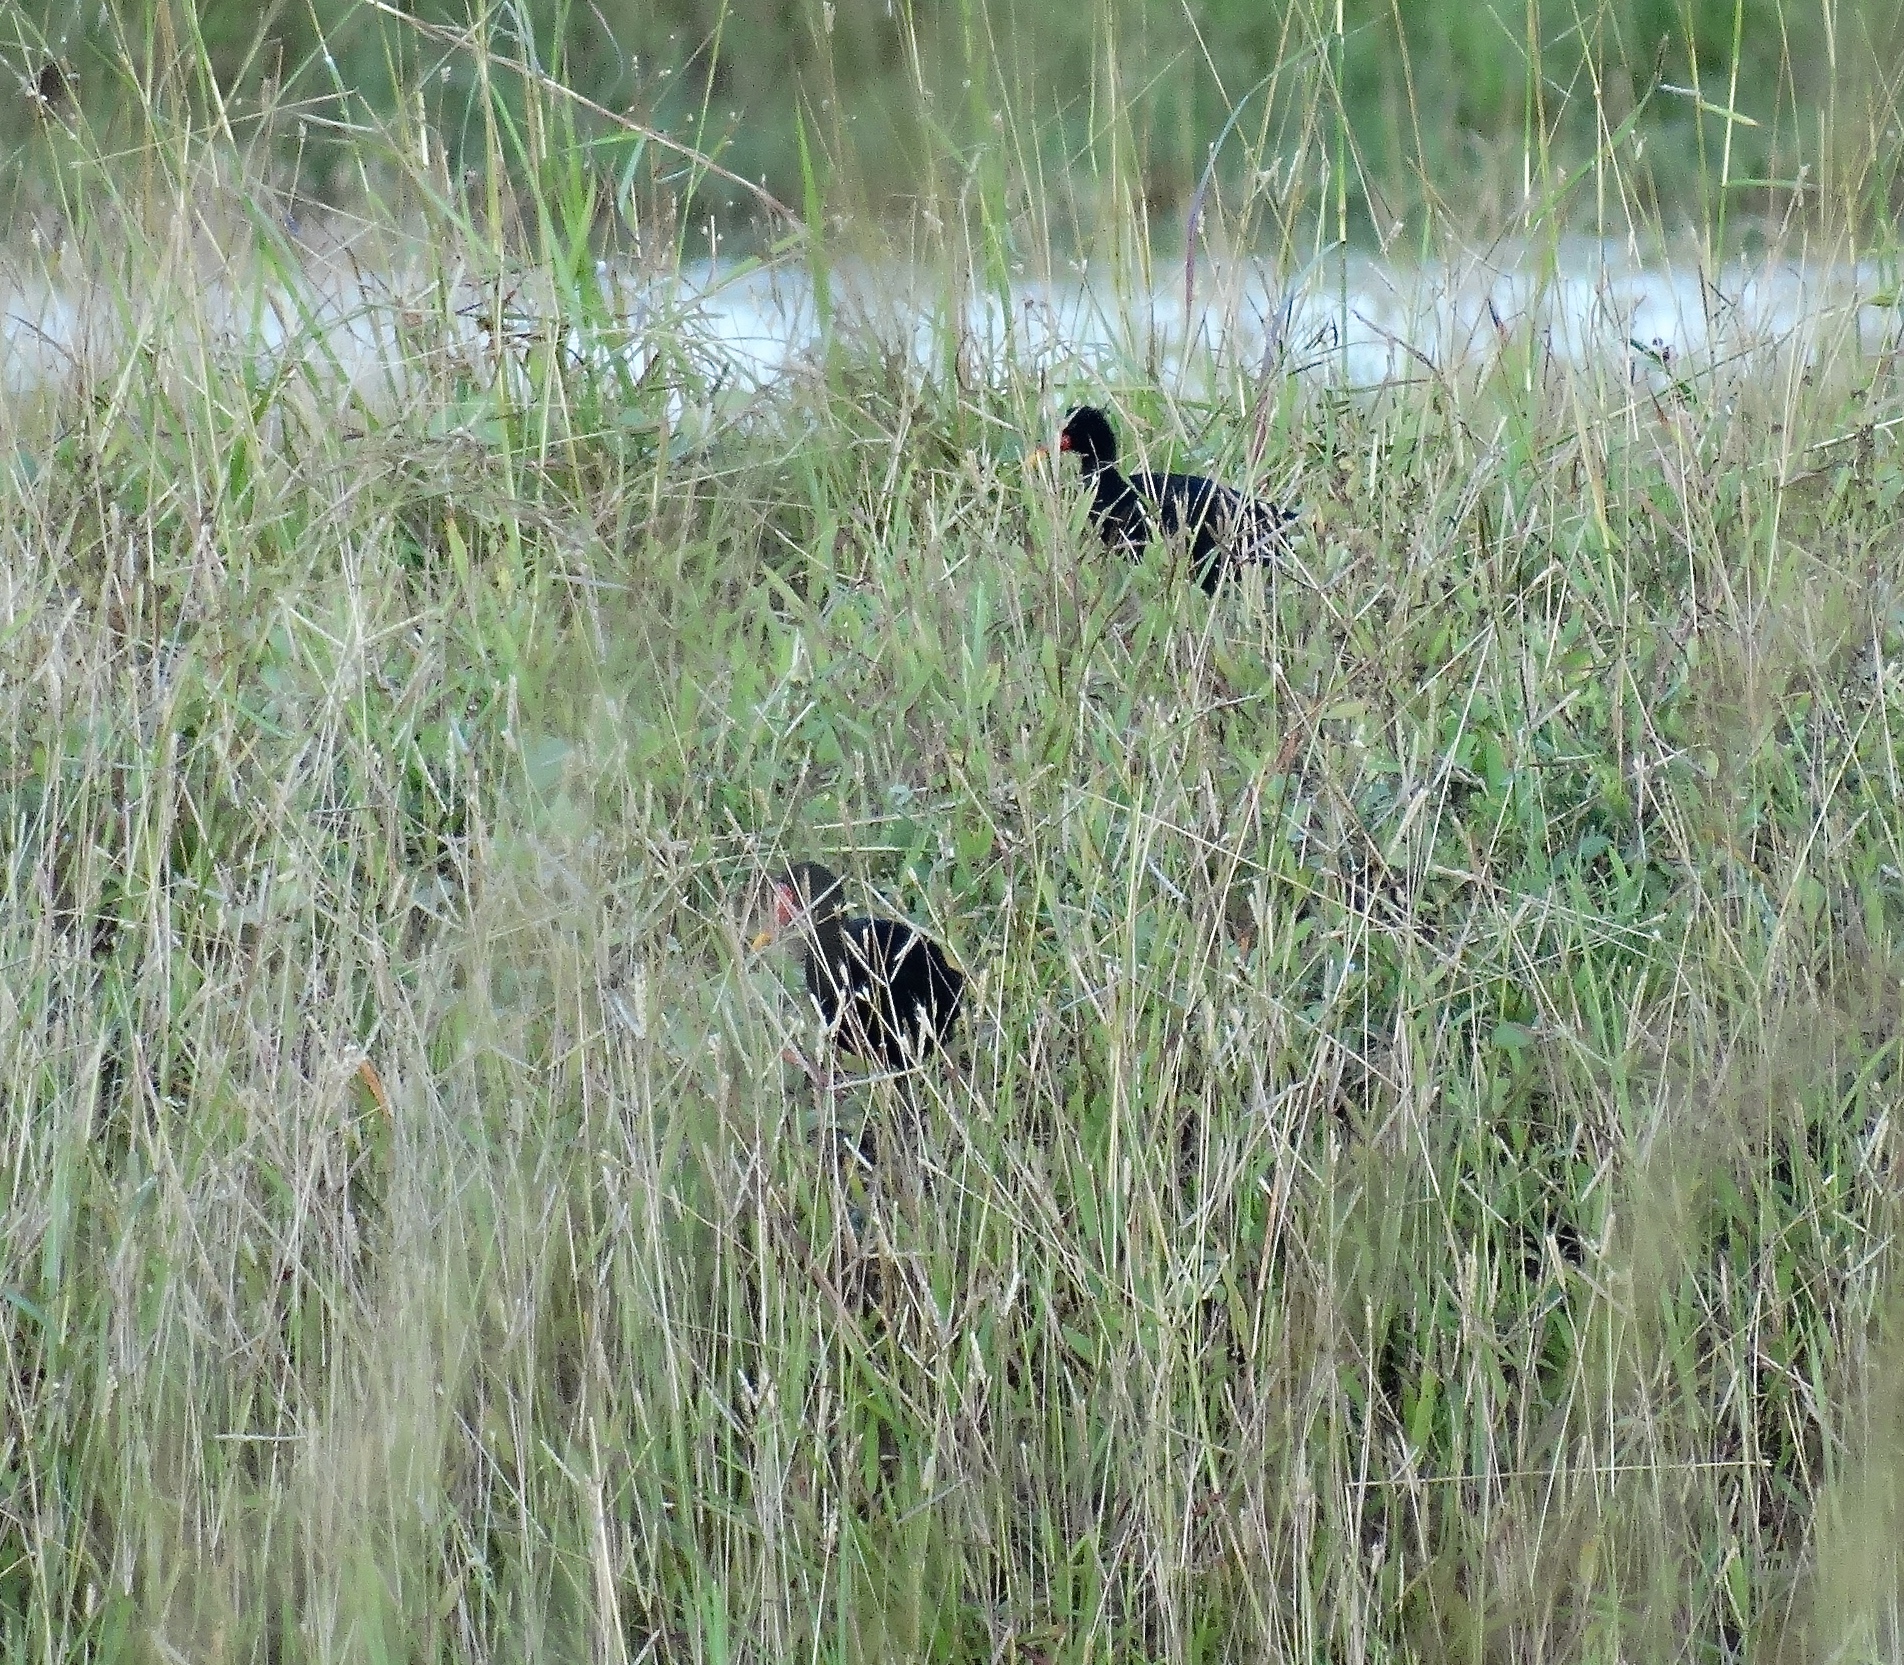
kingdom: Animalia
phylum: Chordata
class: Aves
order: Charadriiformes
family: Jacanidae
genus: Jacana
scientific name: Jacana jacana
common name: Wattled jacana
